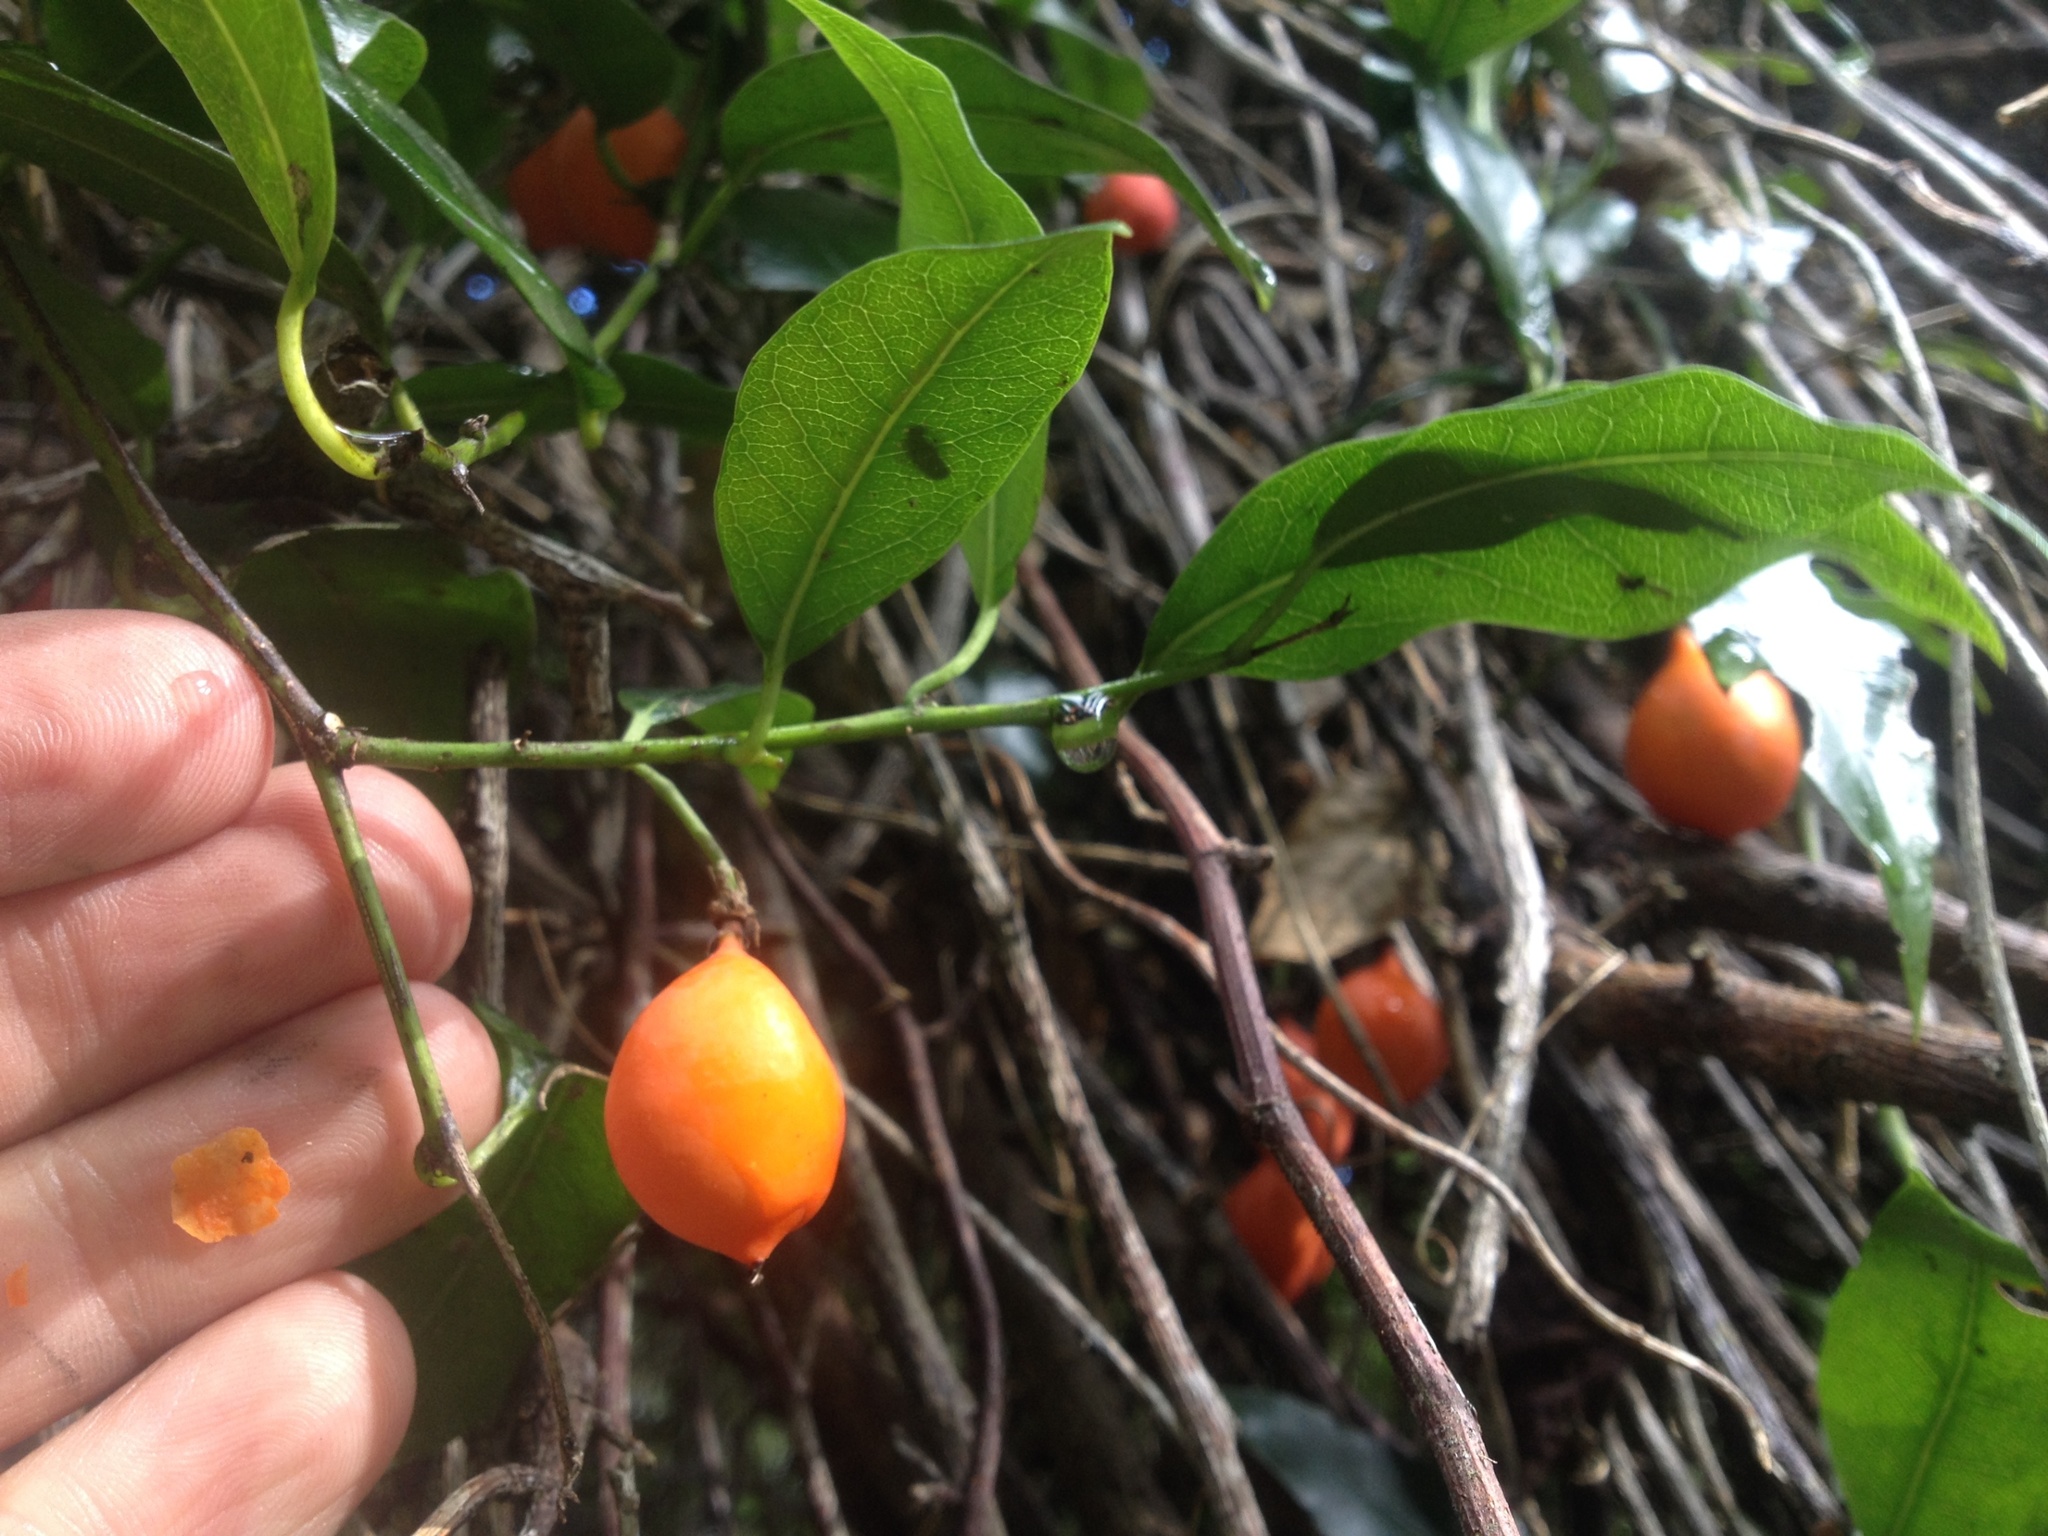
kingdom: Plantae
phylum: Tracheophyta
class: Magnoliopsida
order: Malpighiales
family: Passifloraceae
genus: Passiflora
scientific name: Passiflora tetrandra
